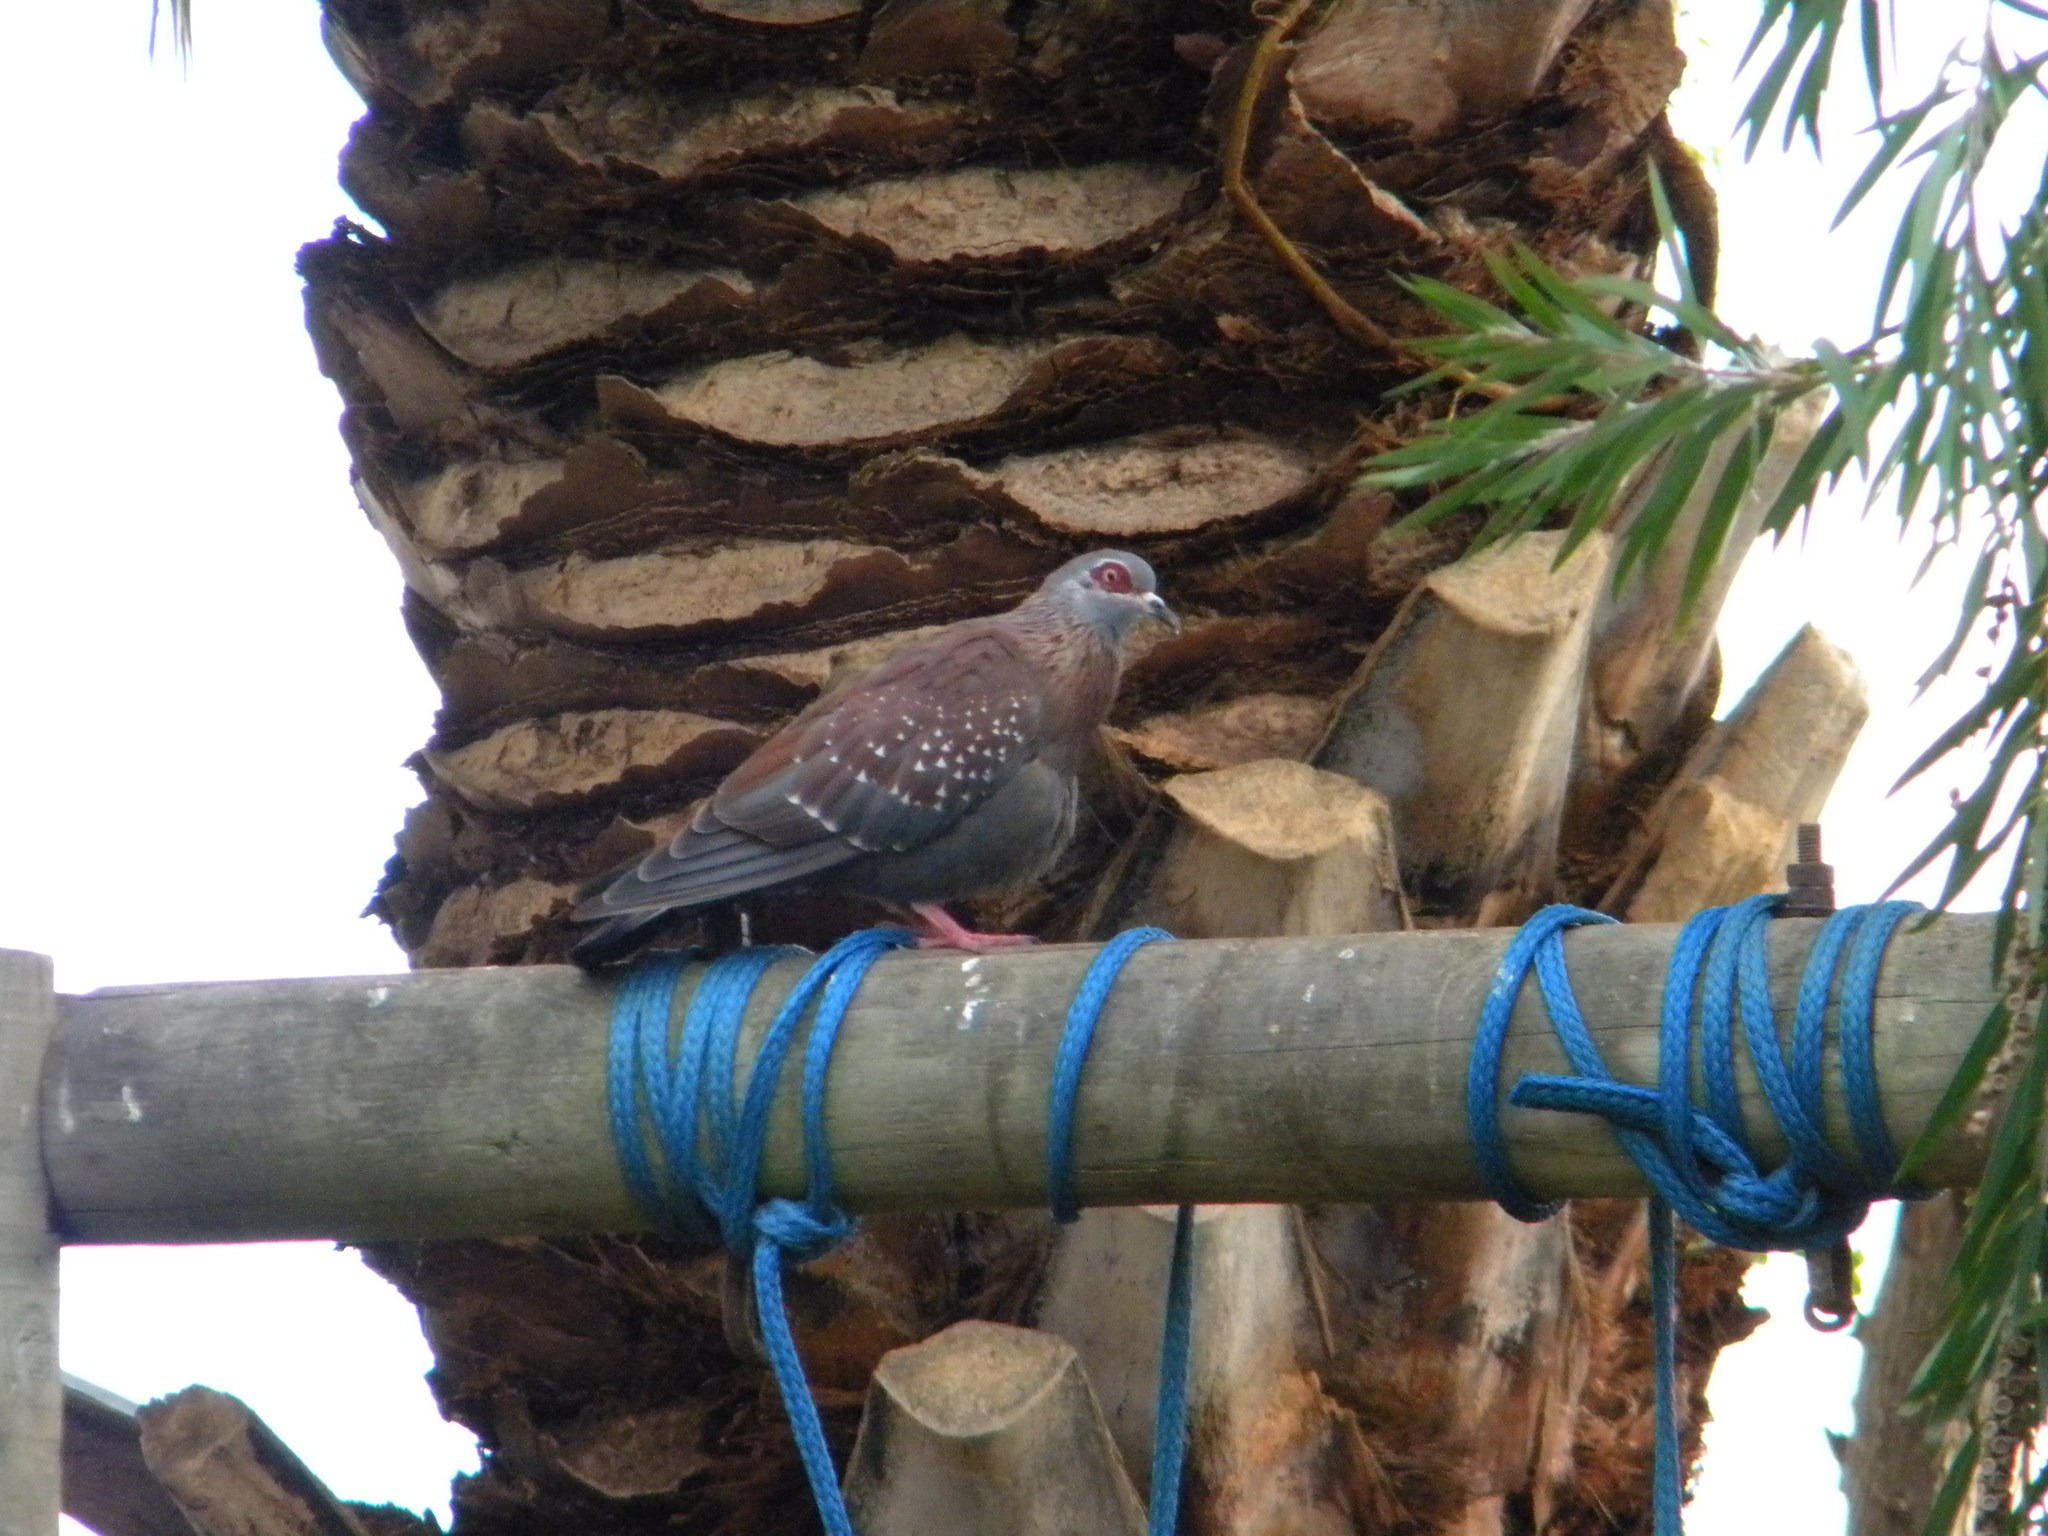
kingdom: Animalia
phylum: Chordata
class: Aves
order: Columbiformes
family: Columbidae
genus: Columba
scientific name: Columba guinea
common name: Speckled pigeon
